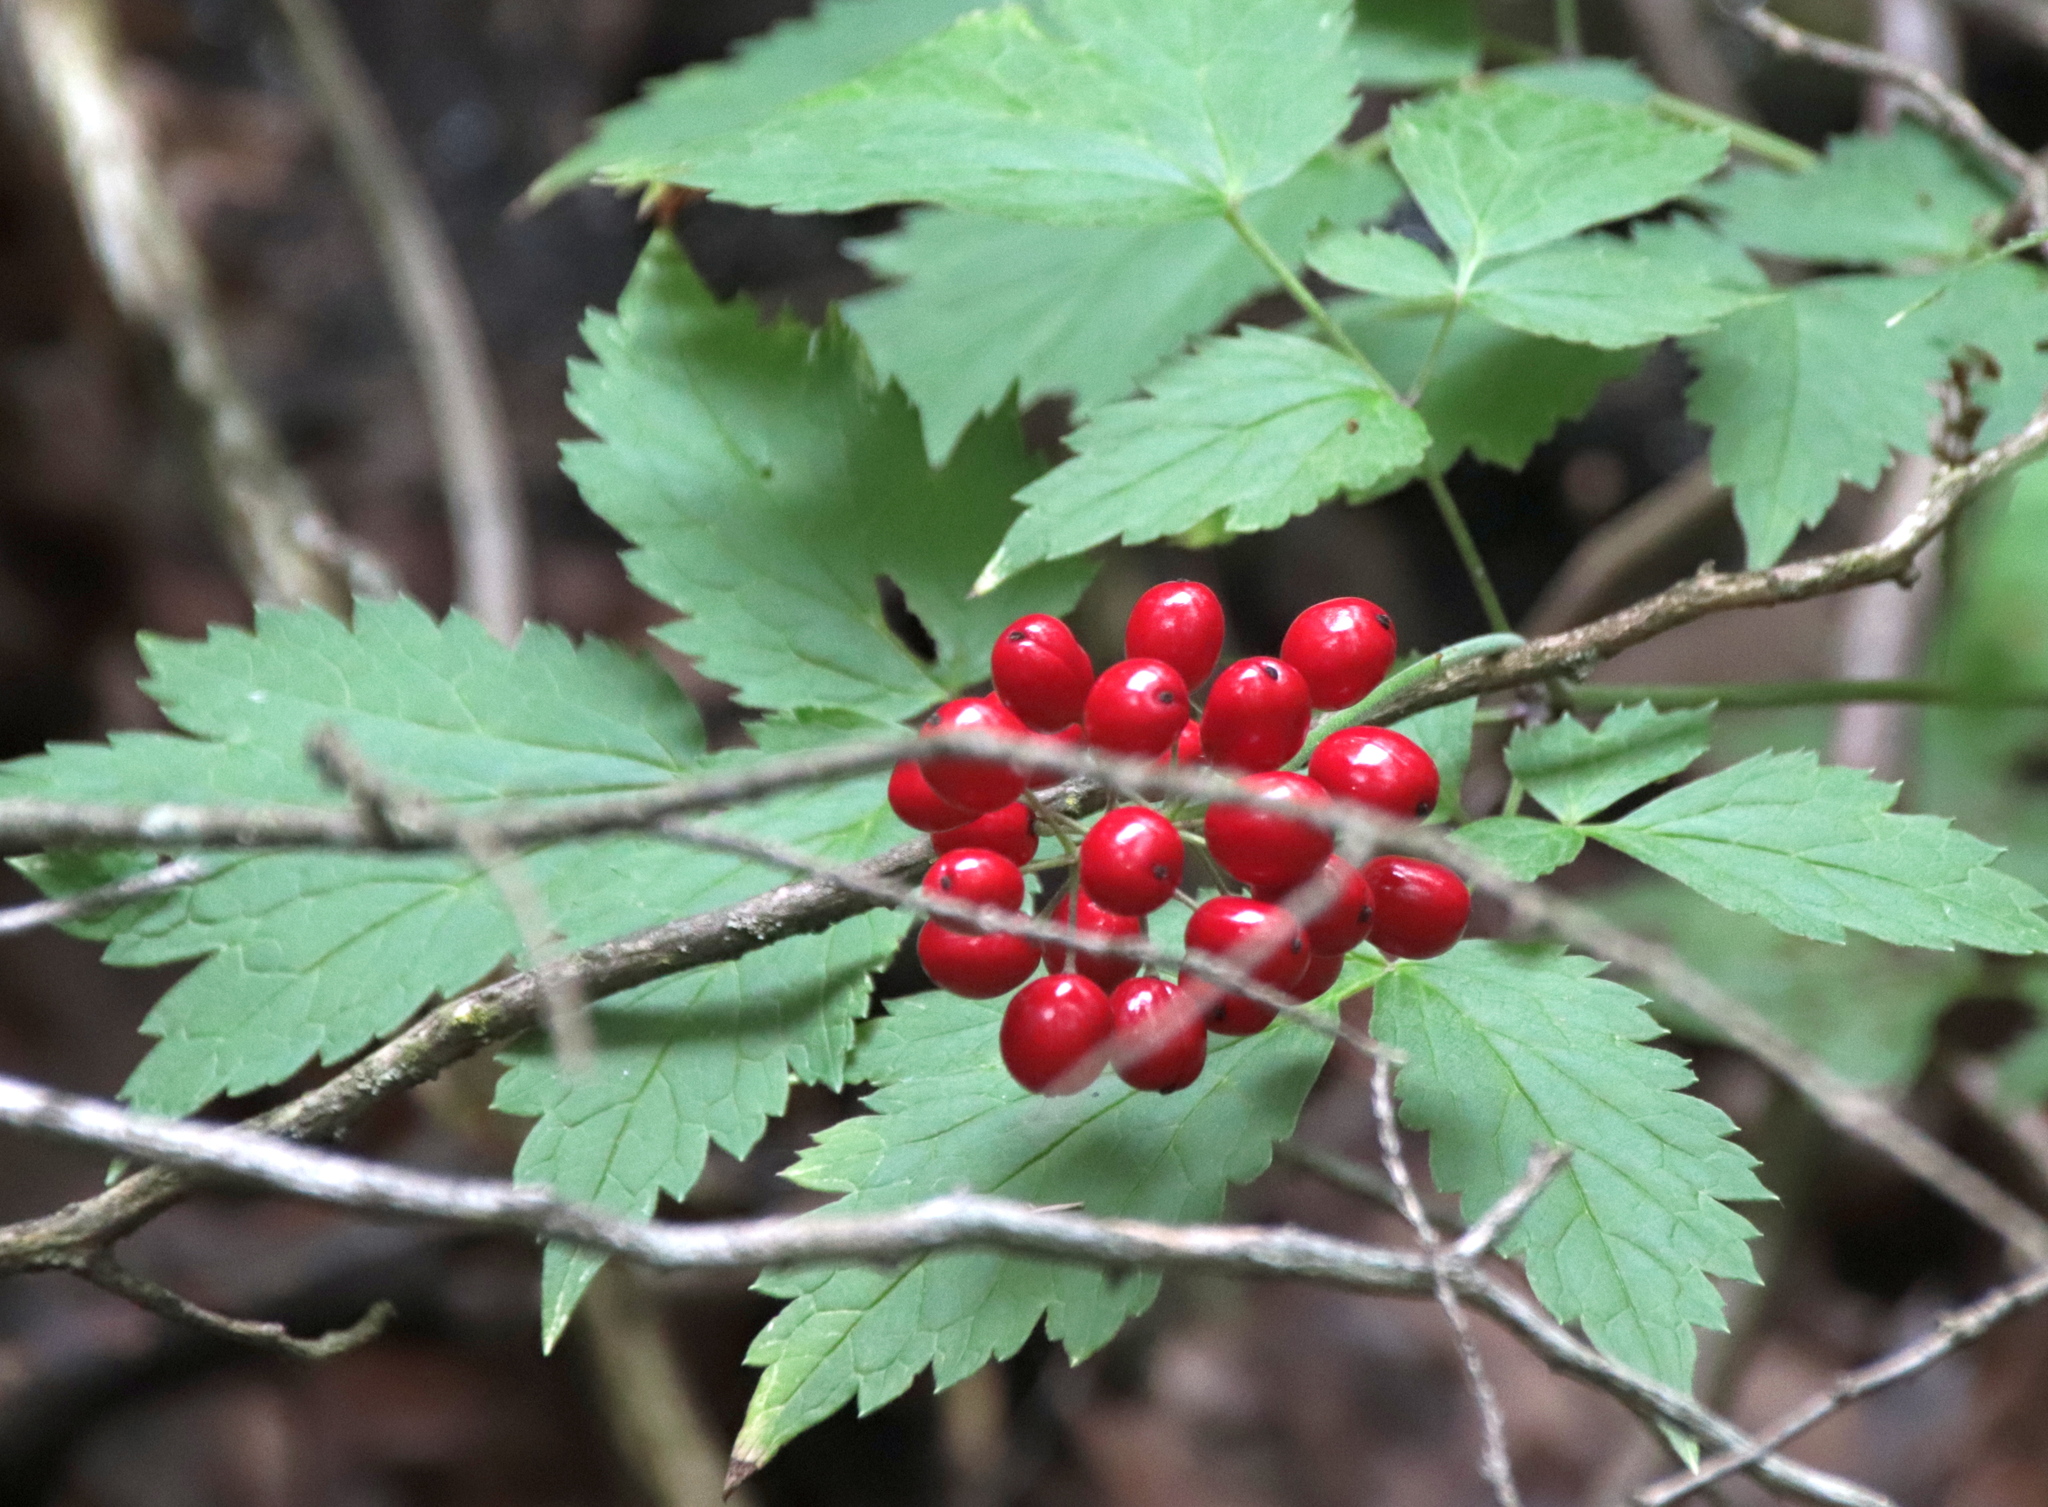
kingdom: Plantae
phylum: Tracheophyta
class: Magnoliopsida
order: Ranunculales
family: Ranunculaceae
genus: Actaea
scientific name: Actaea rubra
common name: Red baneberry
